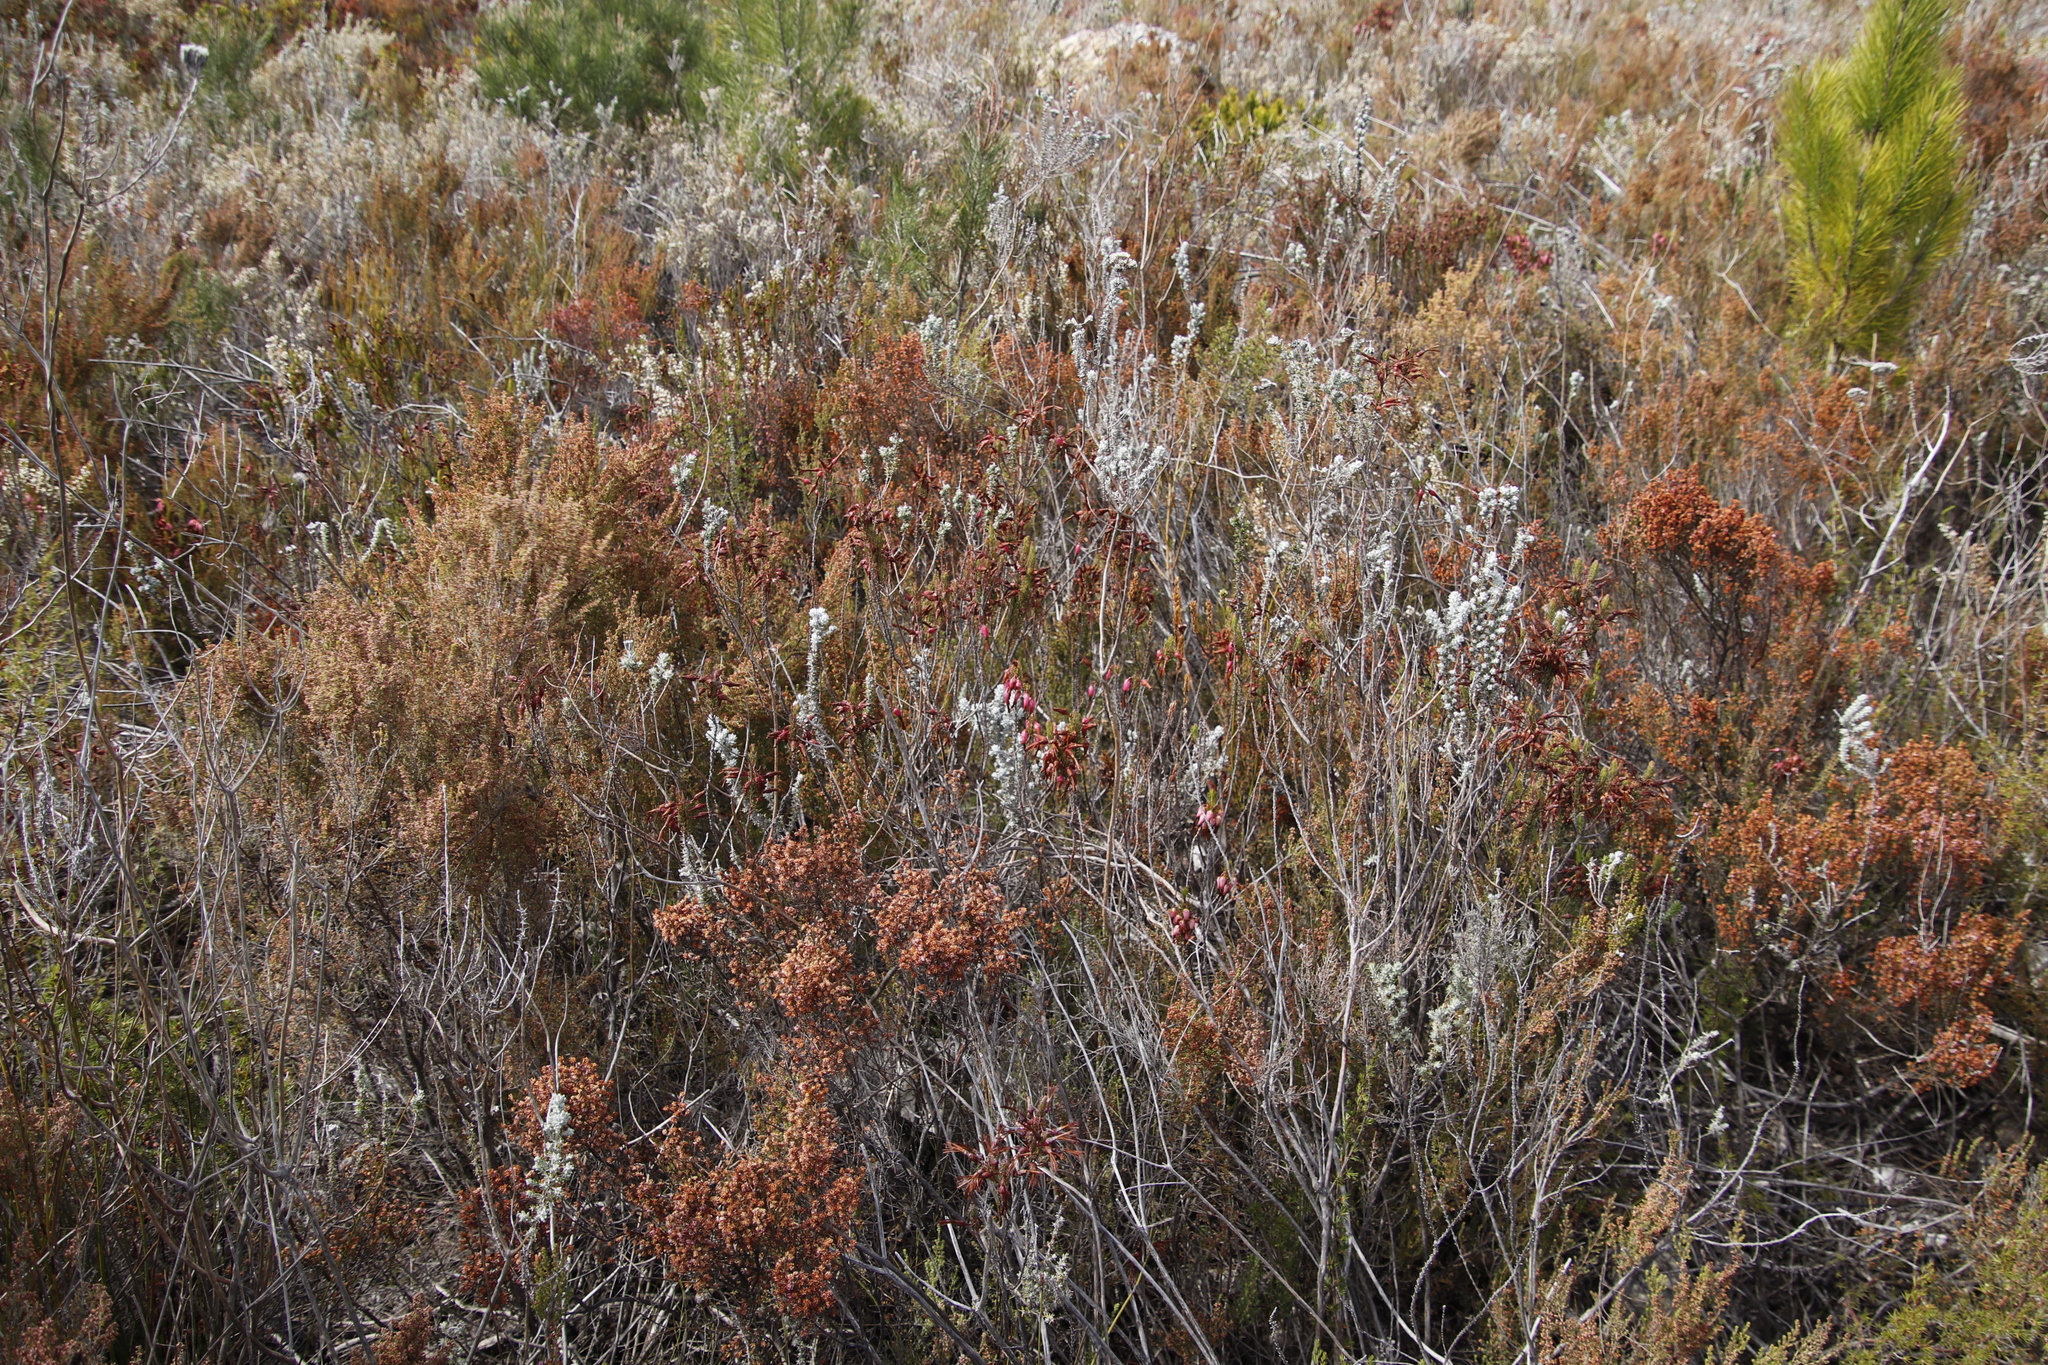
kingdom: Plantae
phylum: Tracheophyta
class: Magnoliopsida
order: Ericales
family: Ericaceae
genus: Erica
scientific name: Erica plukenetii
